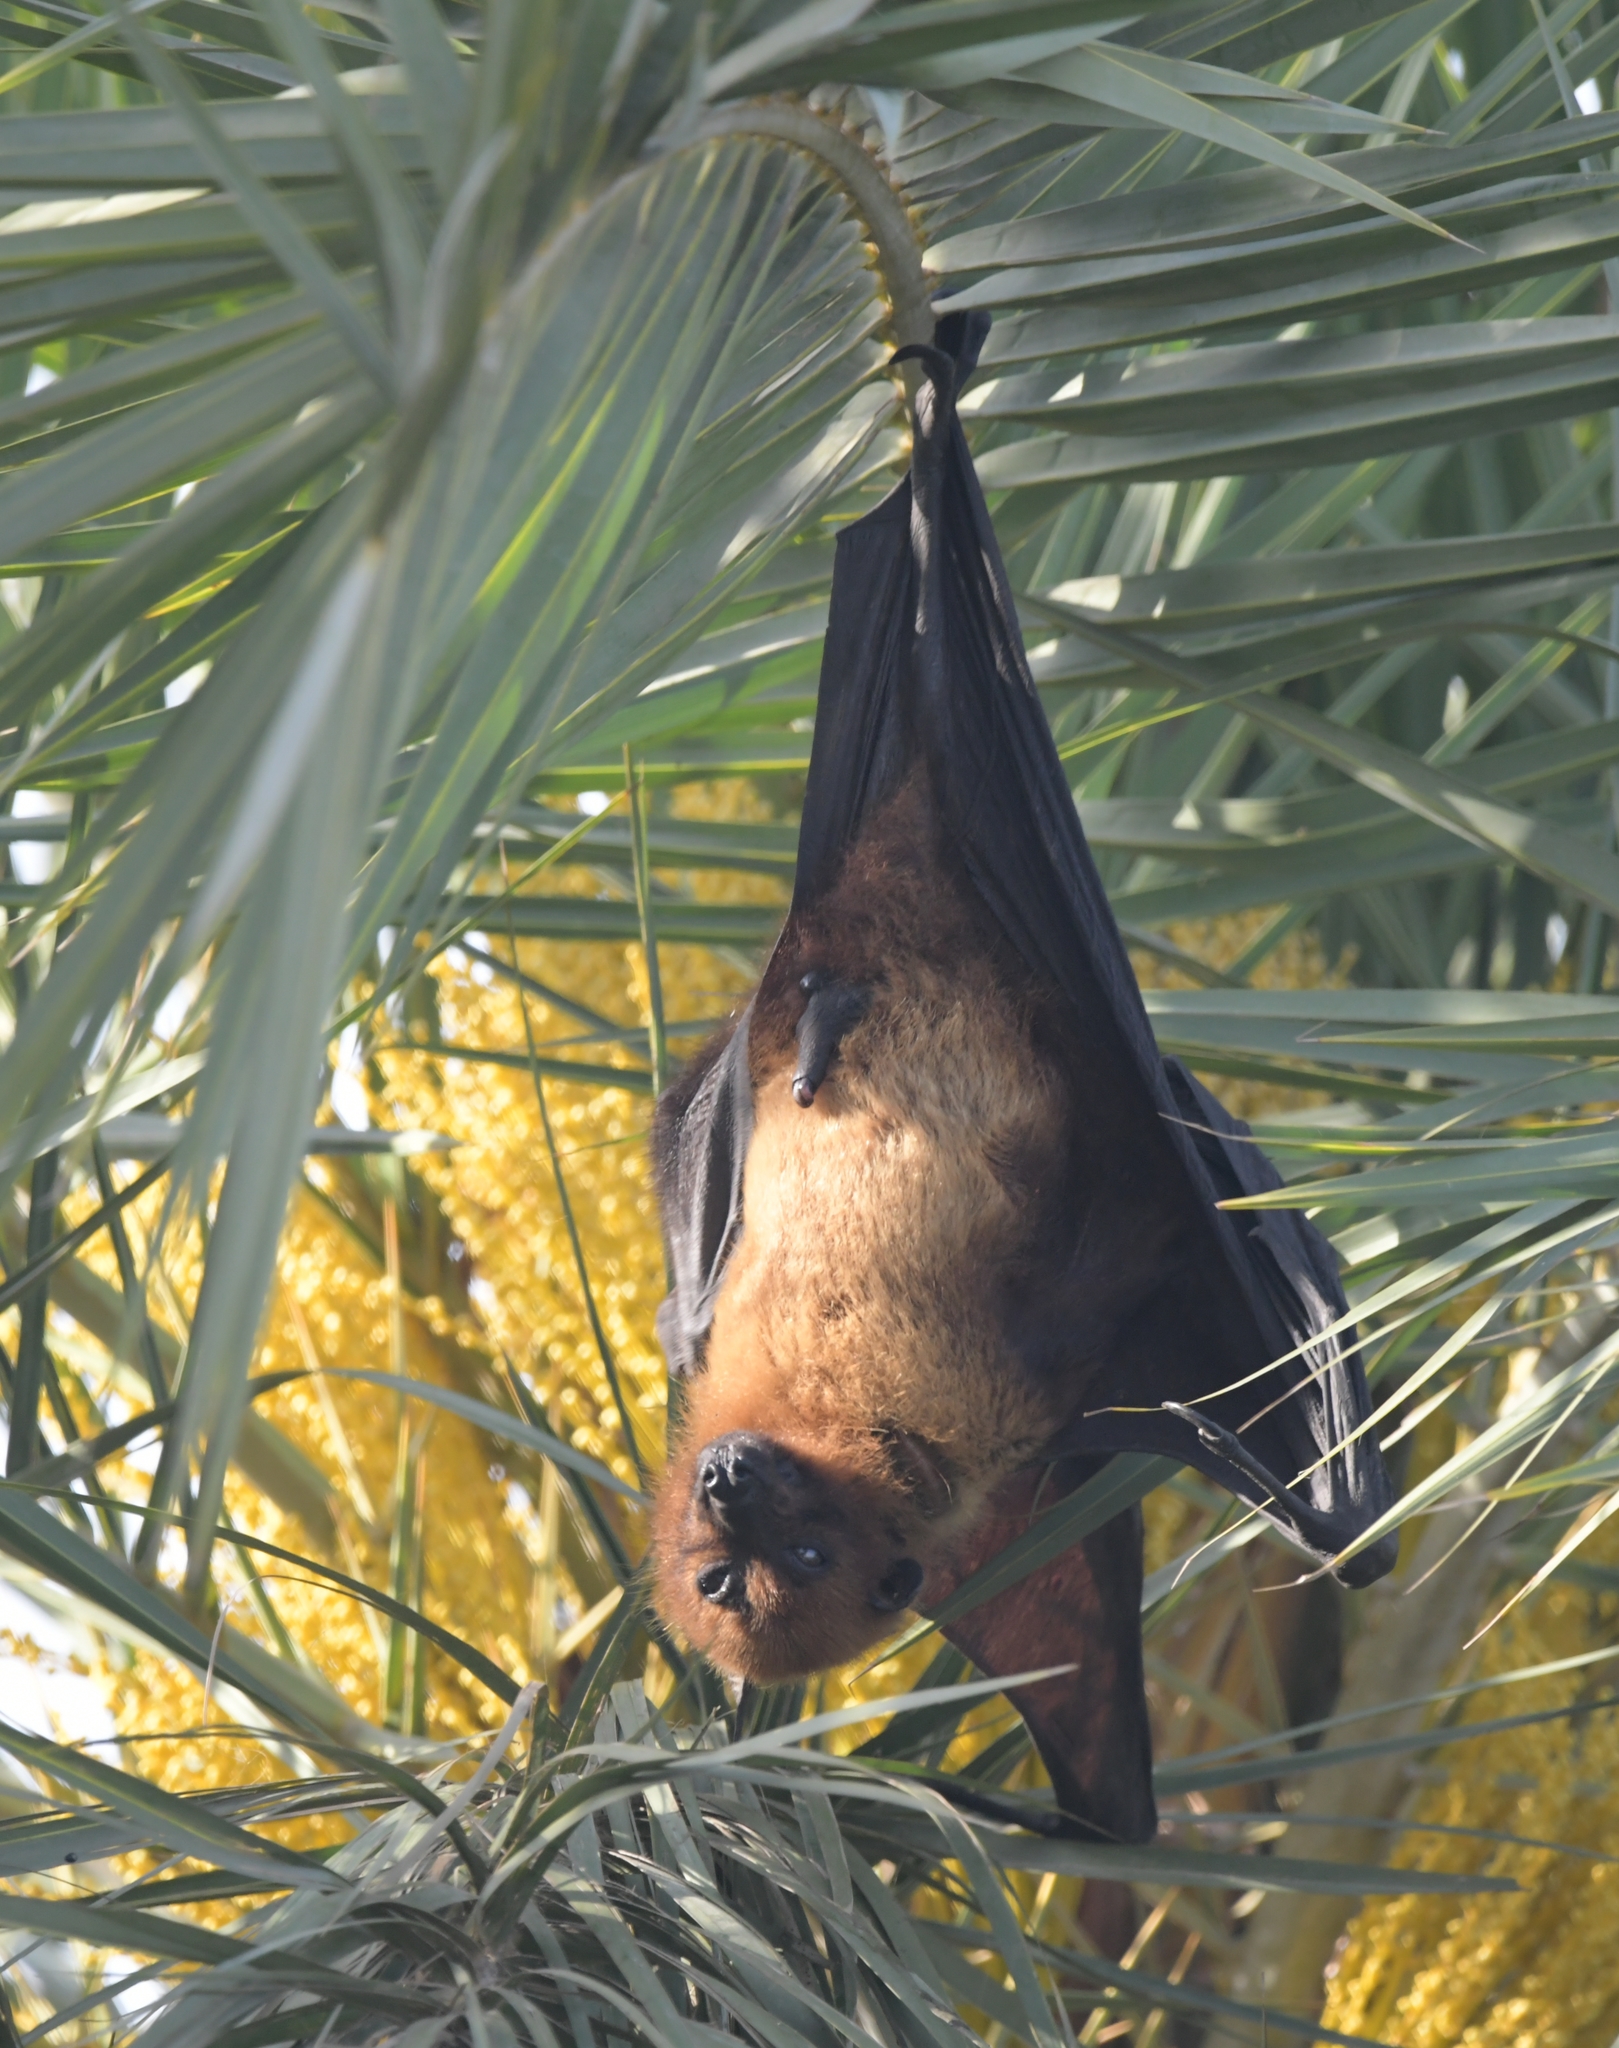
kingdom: Animalia
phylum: Chordata
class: Mammalia
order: Chiroptera
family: Pteropodidae
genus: Pteropus
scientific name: Pteropus vampyrus
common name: Large flying fox
